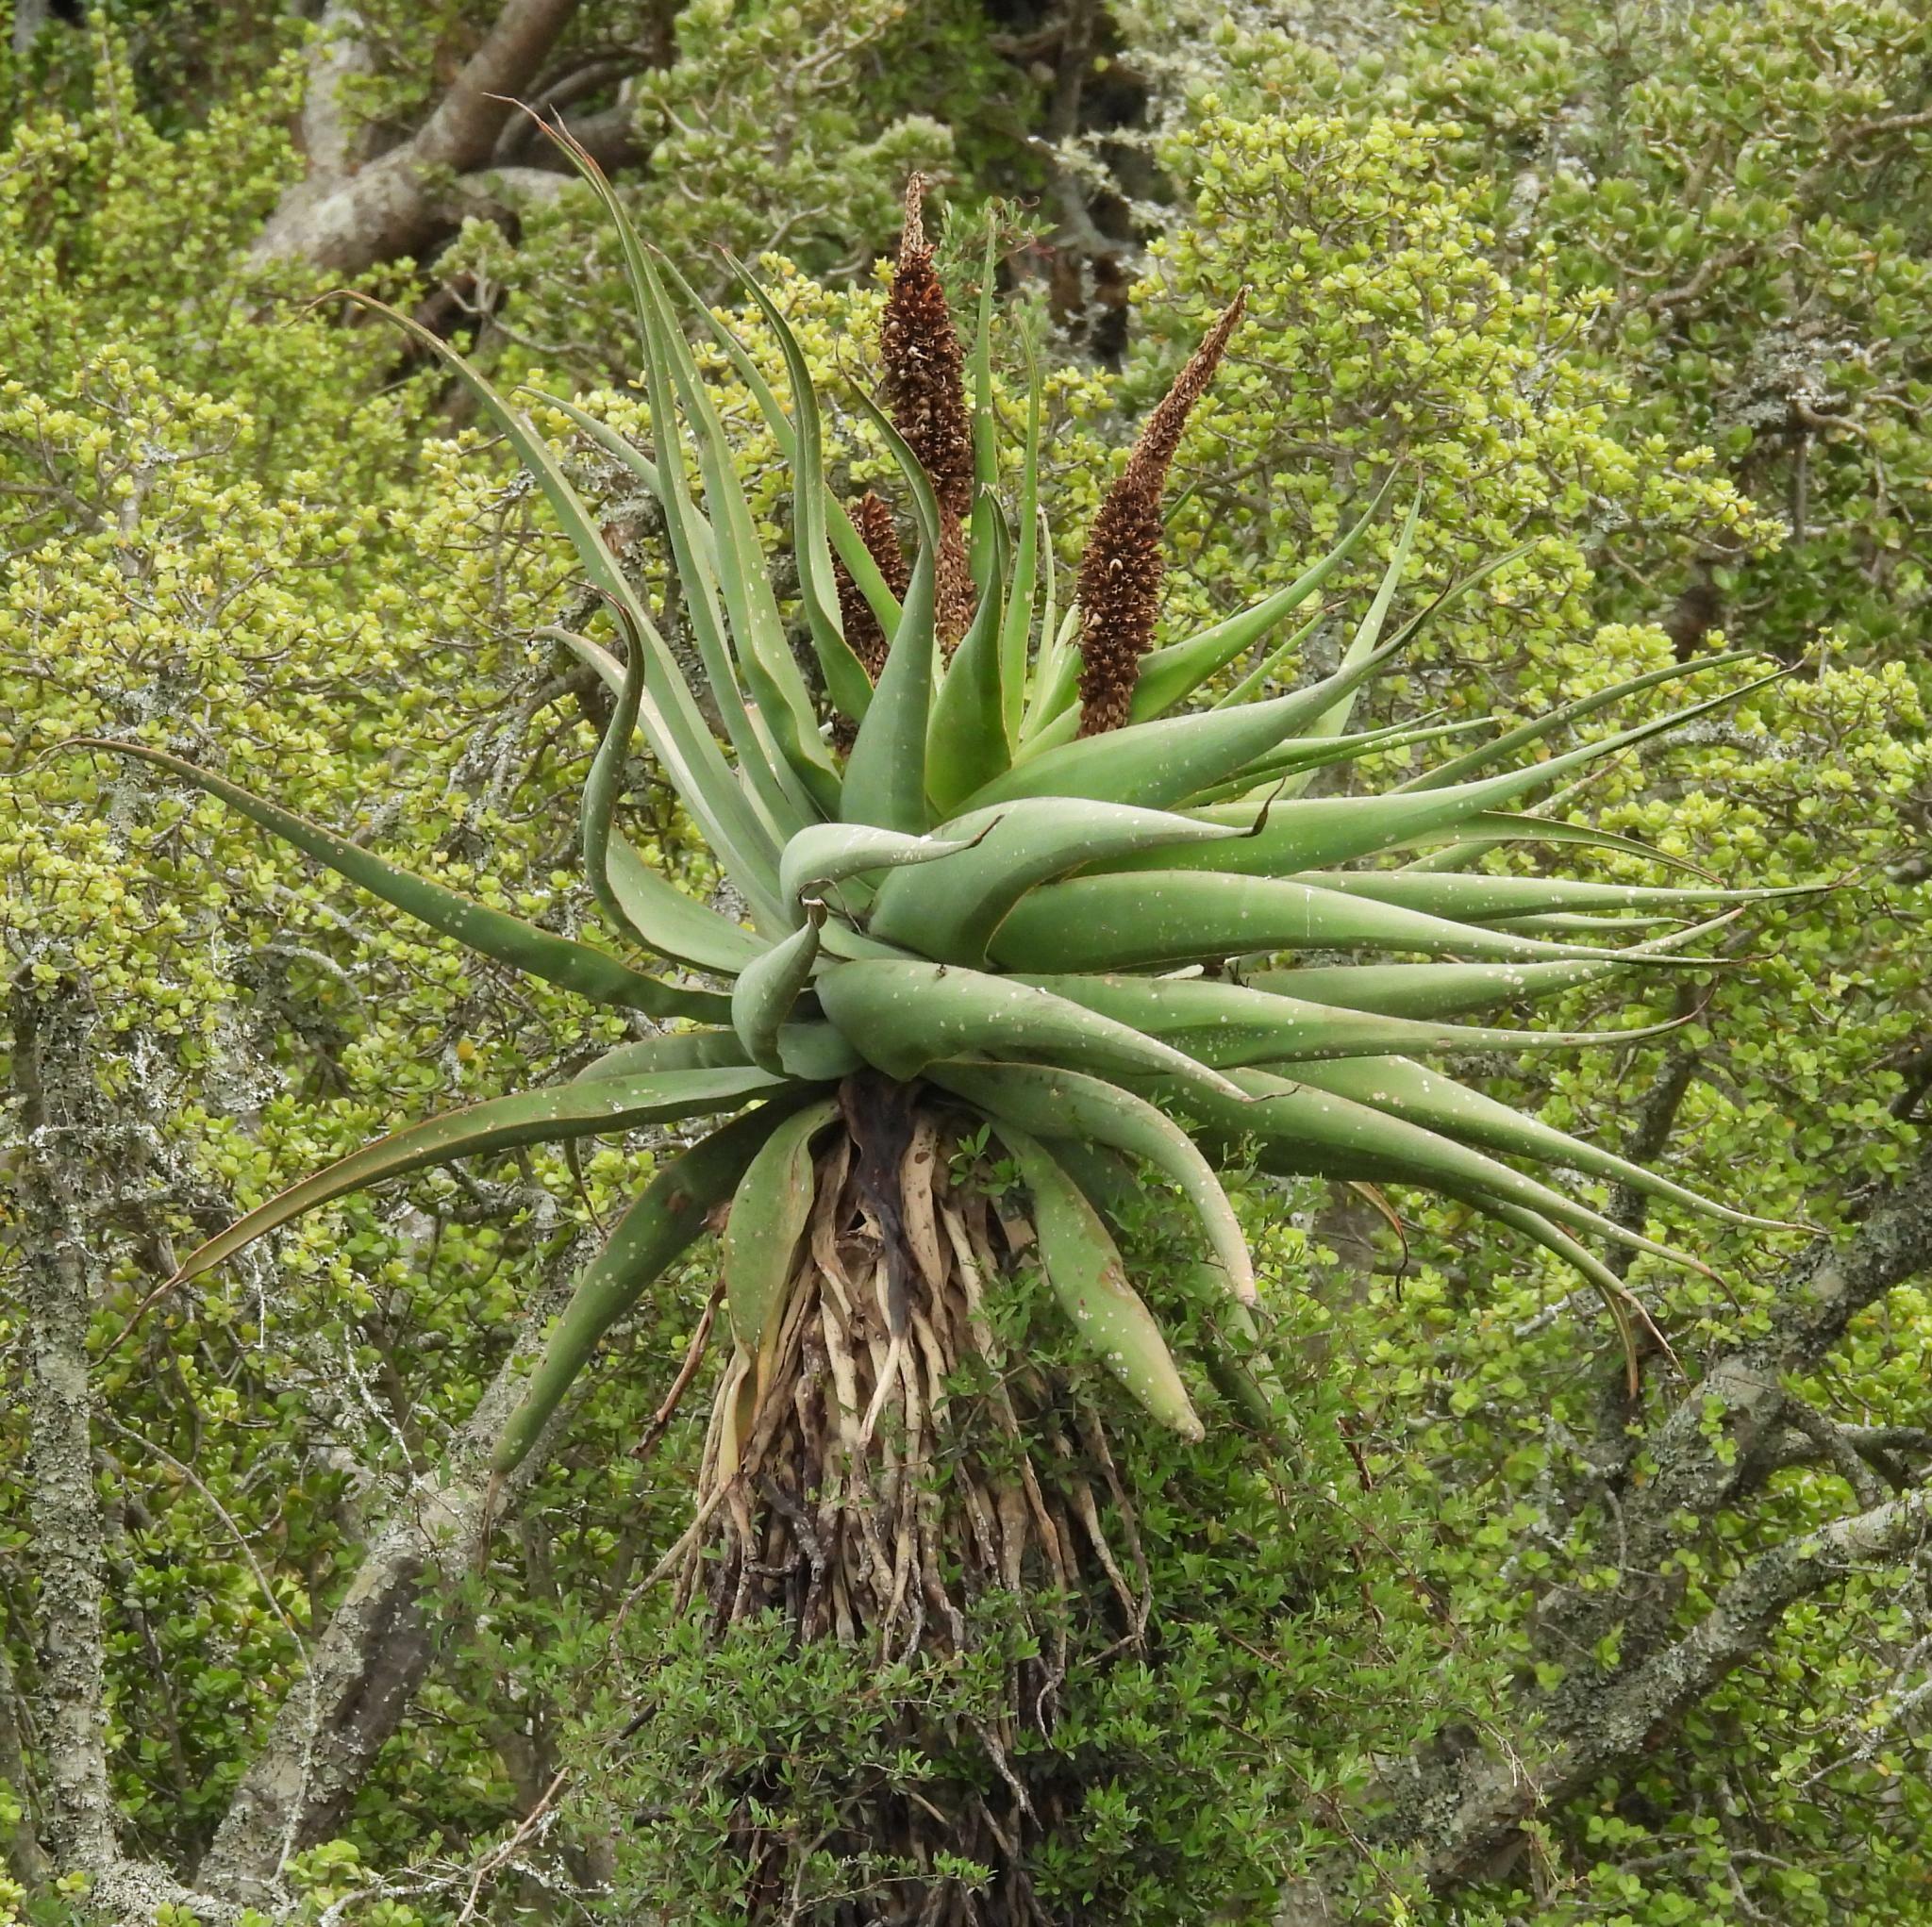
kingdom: Plantae
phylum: Tracheophyta
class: Liliopsida
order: Asparagales
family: Asphodelaceae
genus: Aloe
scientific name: Aloe ferox
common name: Bitter aloe
